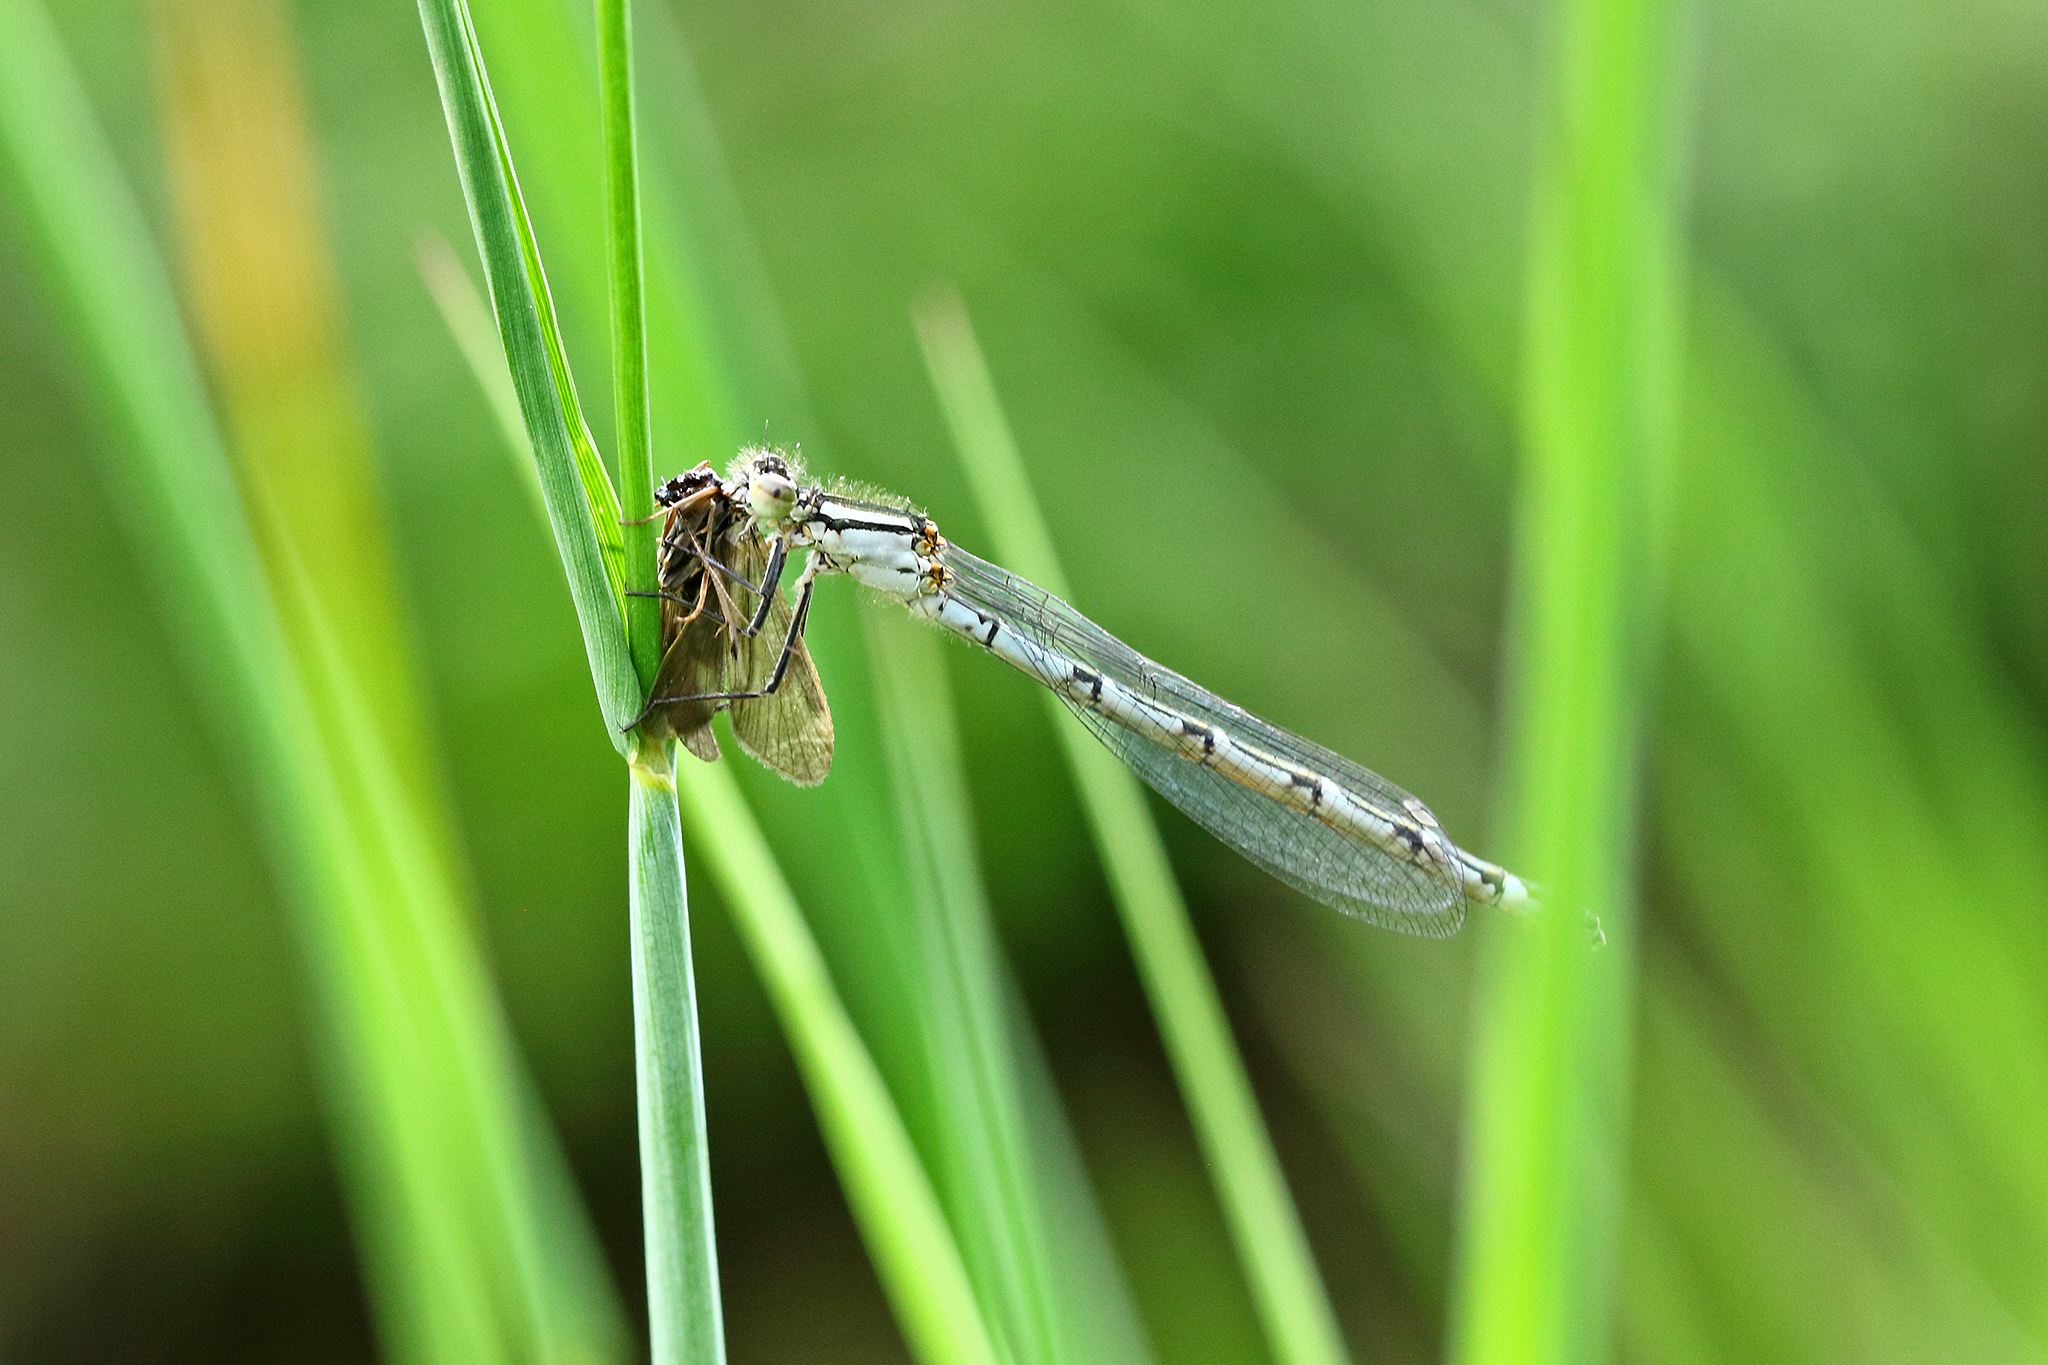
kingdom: Animalia
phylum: Arthropoda
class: Insecta
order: Odonata
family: Coenagrionidae
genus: Enallagma
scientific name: Enallagma cyathigerum
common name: Common blue damselfly
